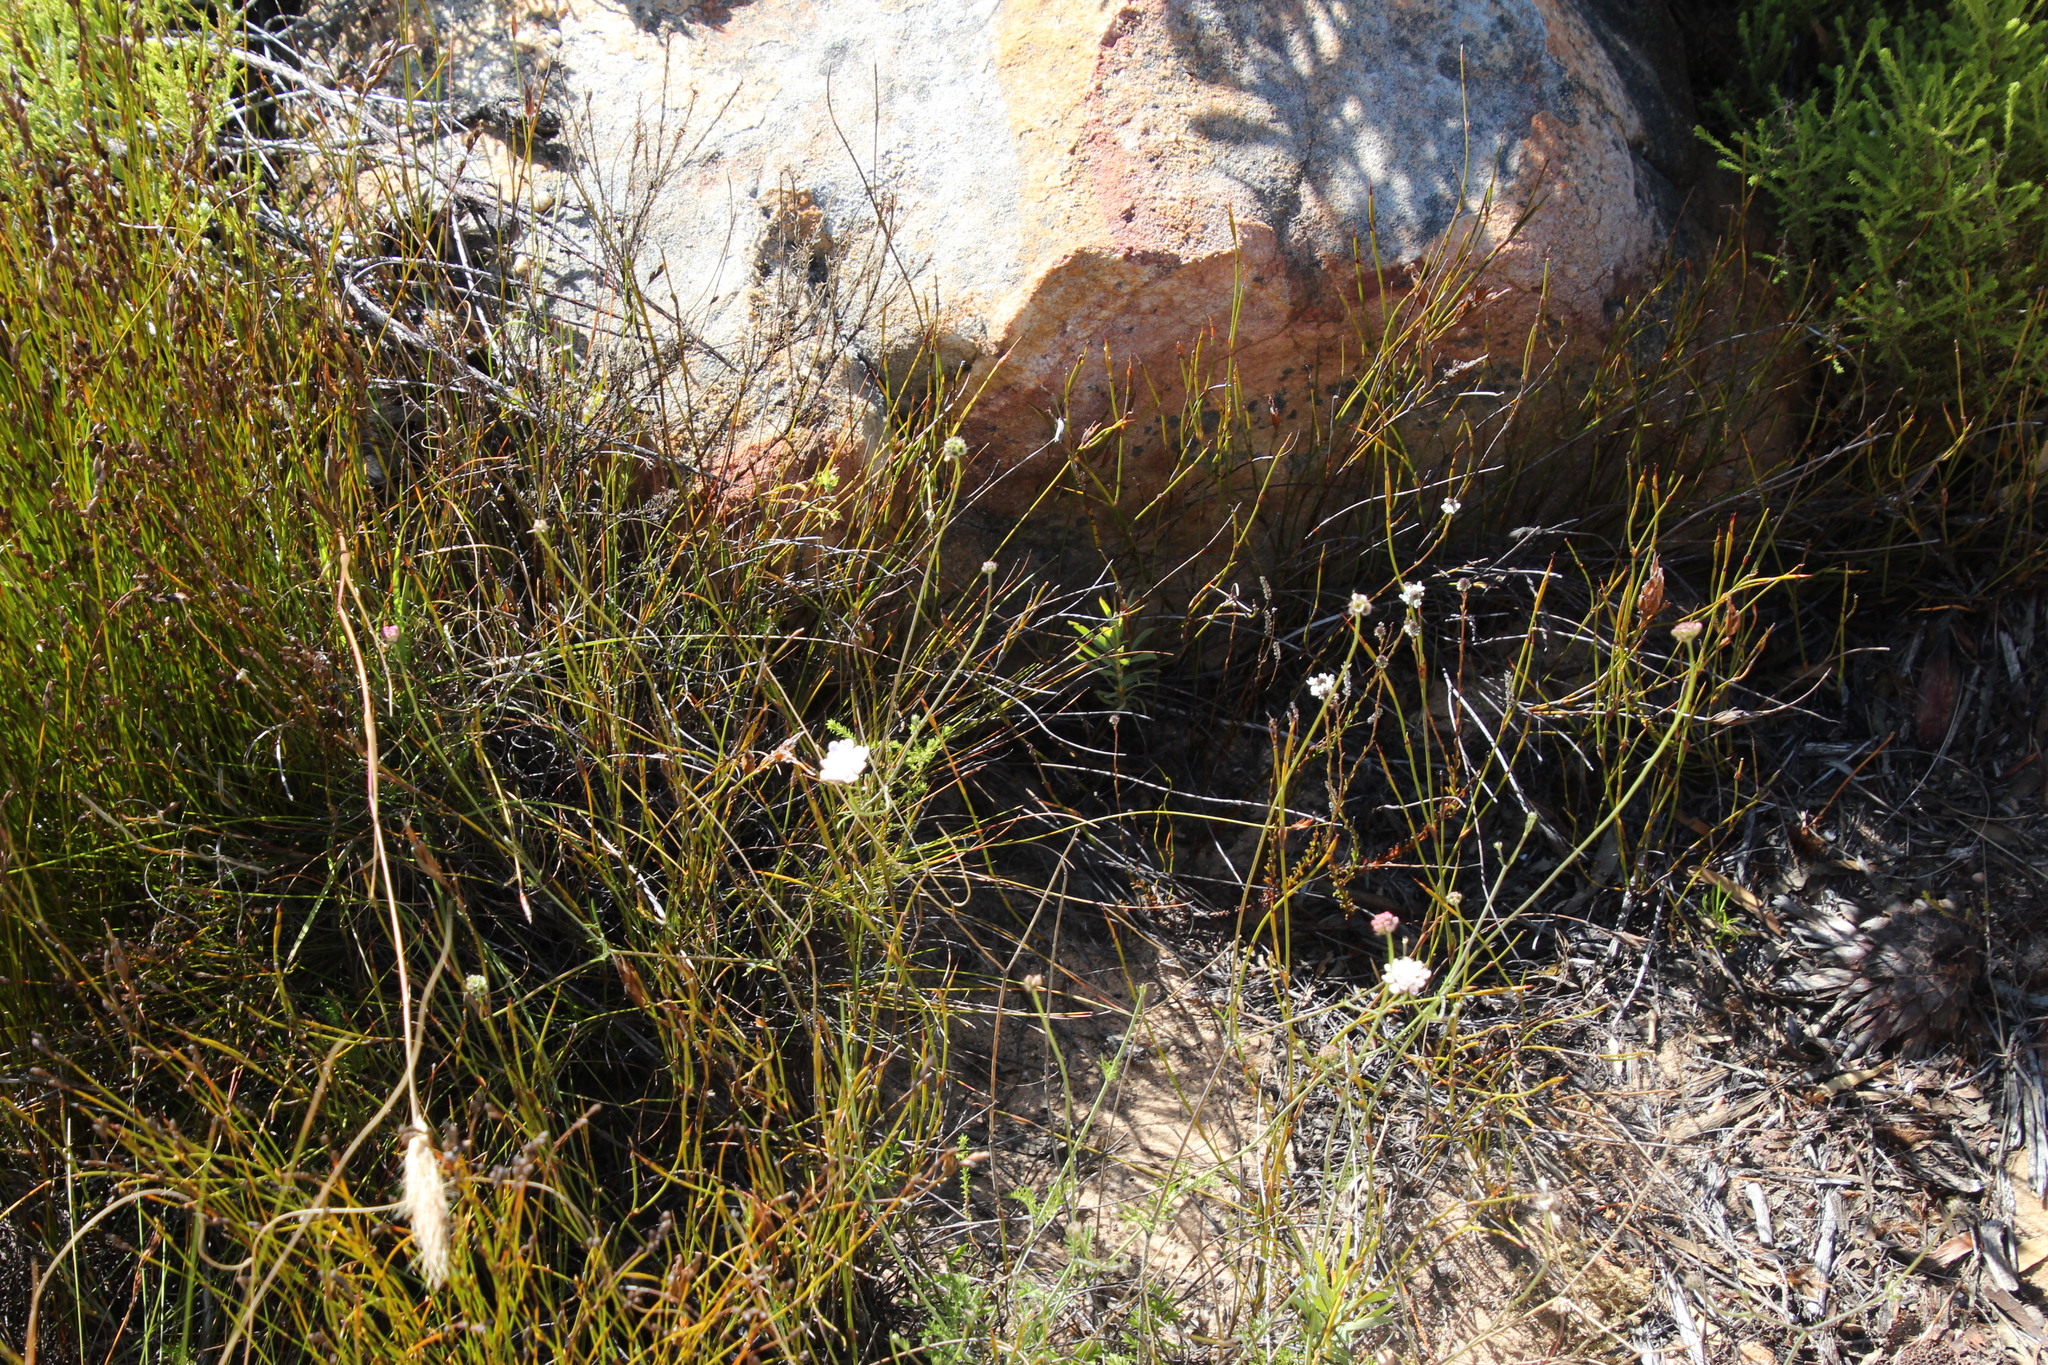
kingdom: Plantae
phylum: Tracheophyta
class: Magnoliopsida
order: Dipsacales
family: Caprifoliaceae
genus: Scabiosa
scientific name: Scabiosa columbaria
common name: Small scabious
